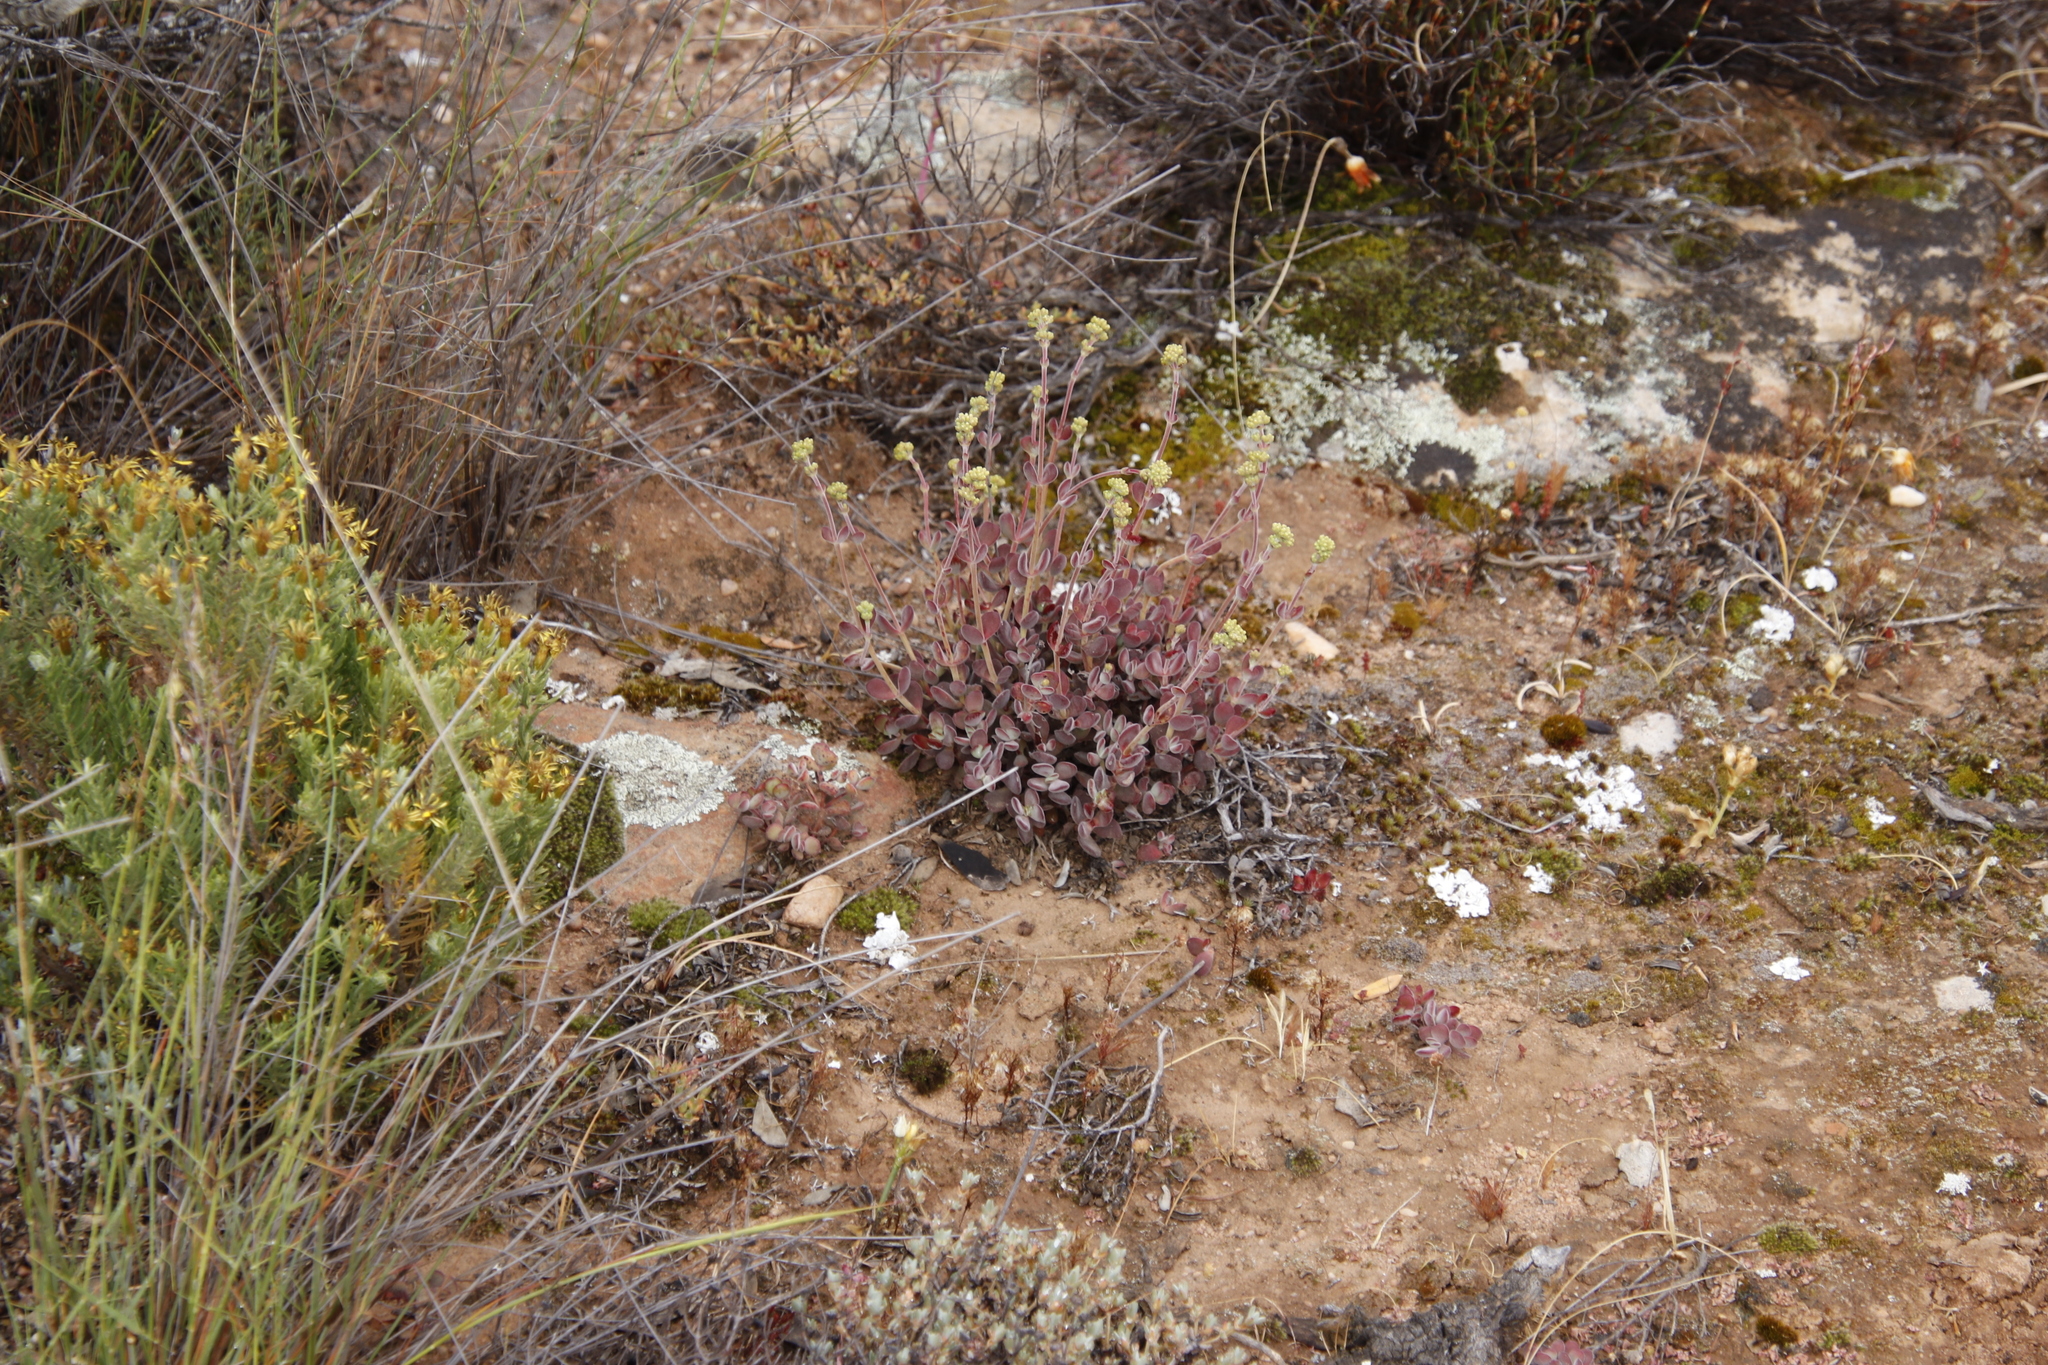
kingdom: Plantae
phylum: Tracheophyta
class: Magnoliopsida
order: Saxifragales
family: Crassulaceae
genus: Crassula
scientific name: Crassula atropurpurea
